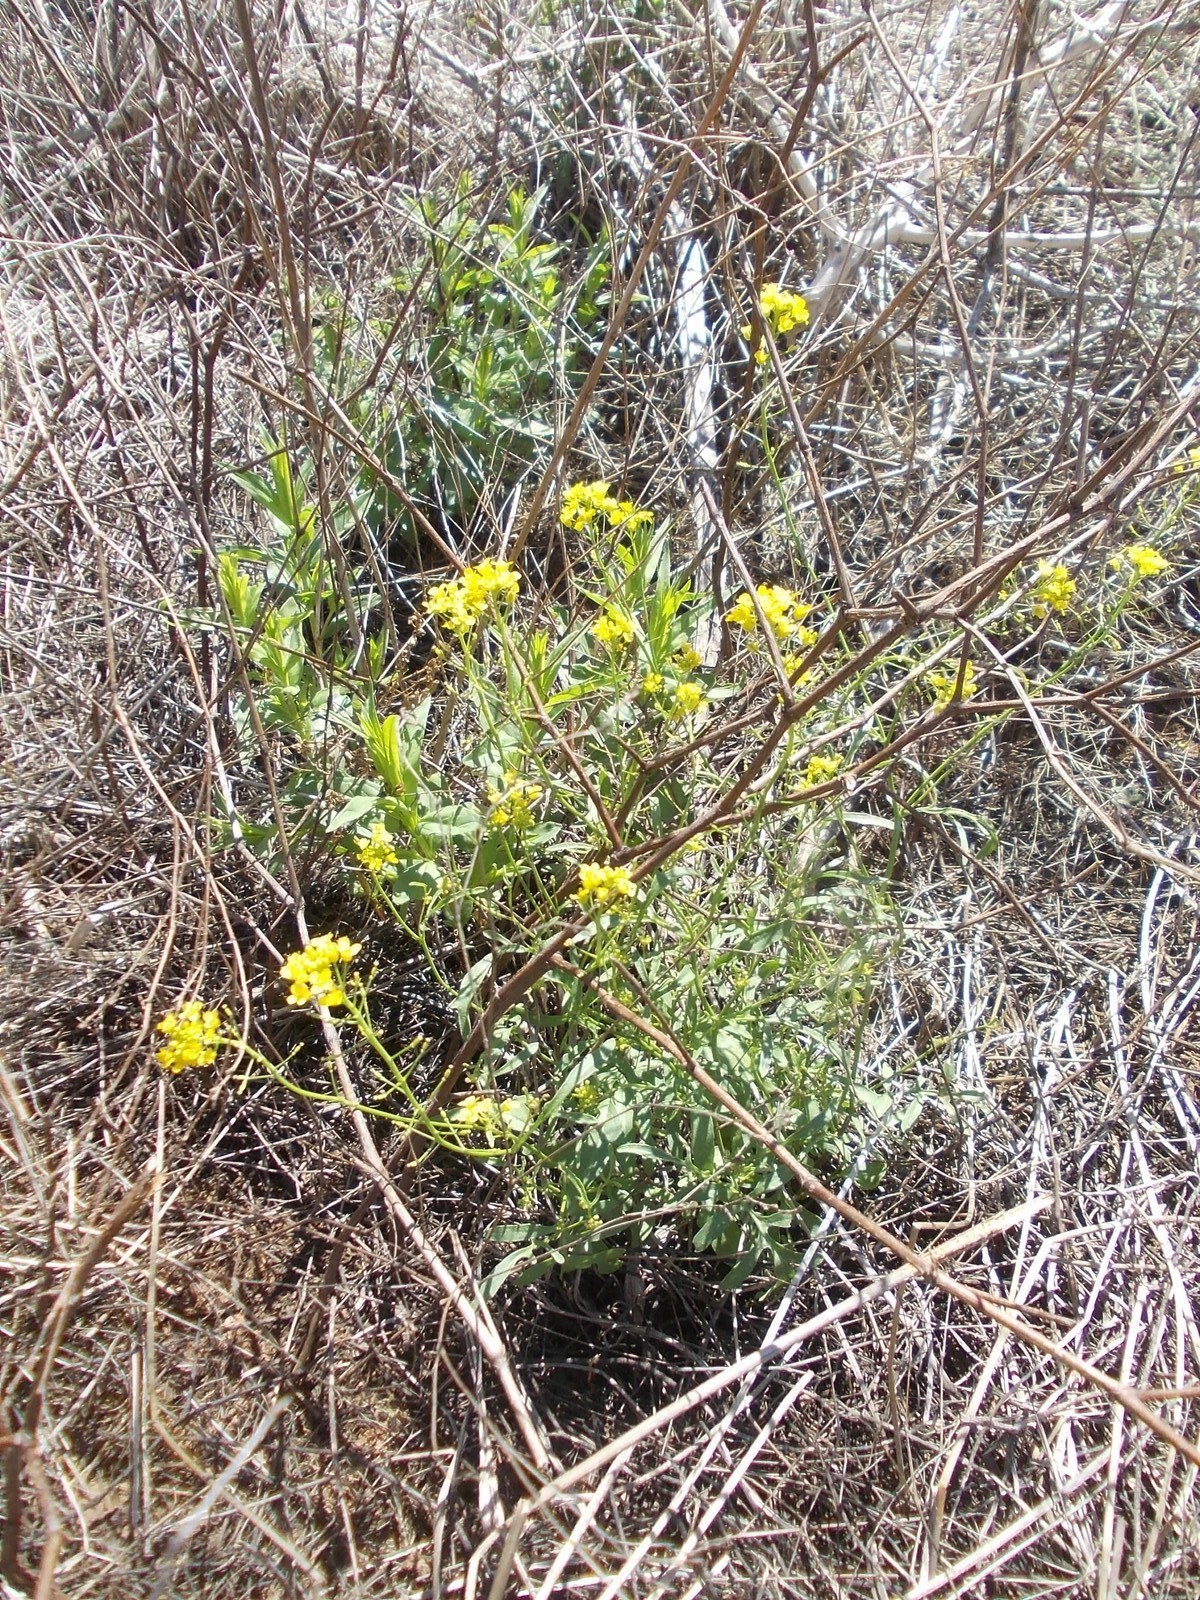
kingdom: Plantae
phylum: Tracheophyta
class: Magnoliopsida
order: Brassicales
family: Brassicaceae
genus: Rorippa
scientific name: Rorippa brachycarpa
